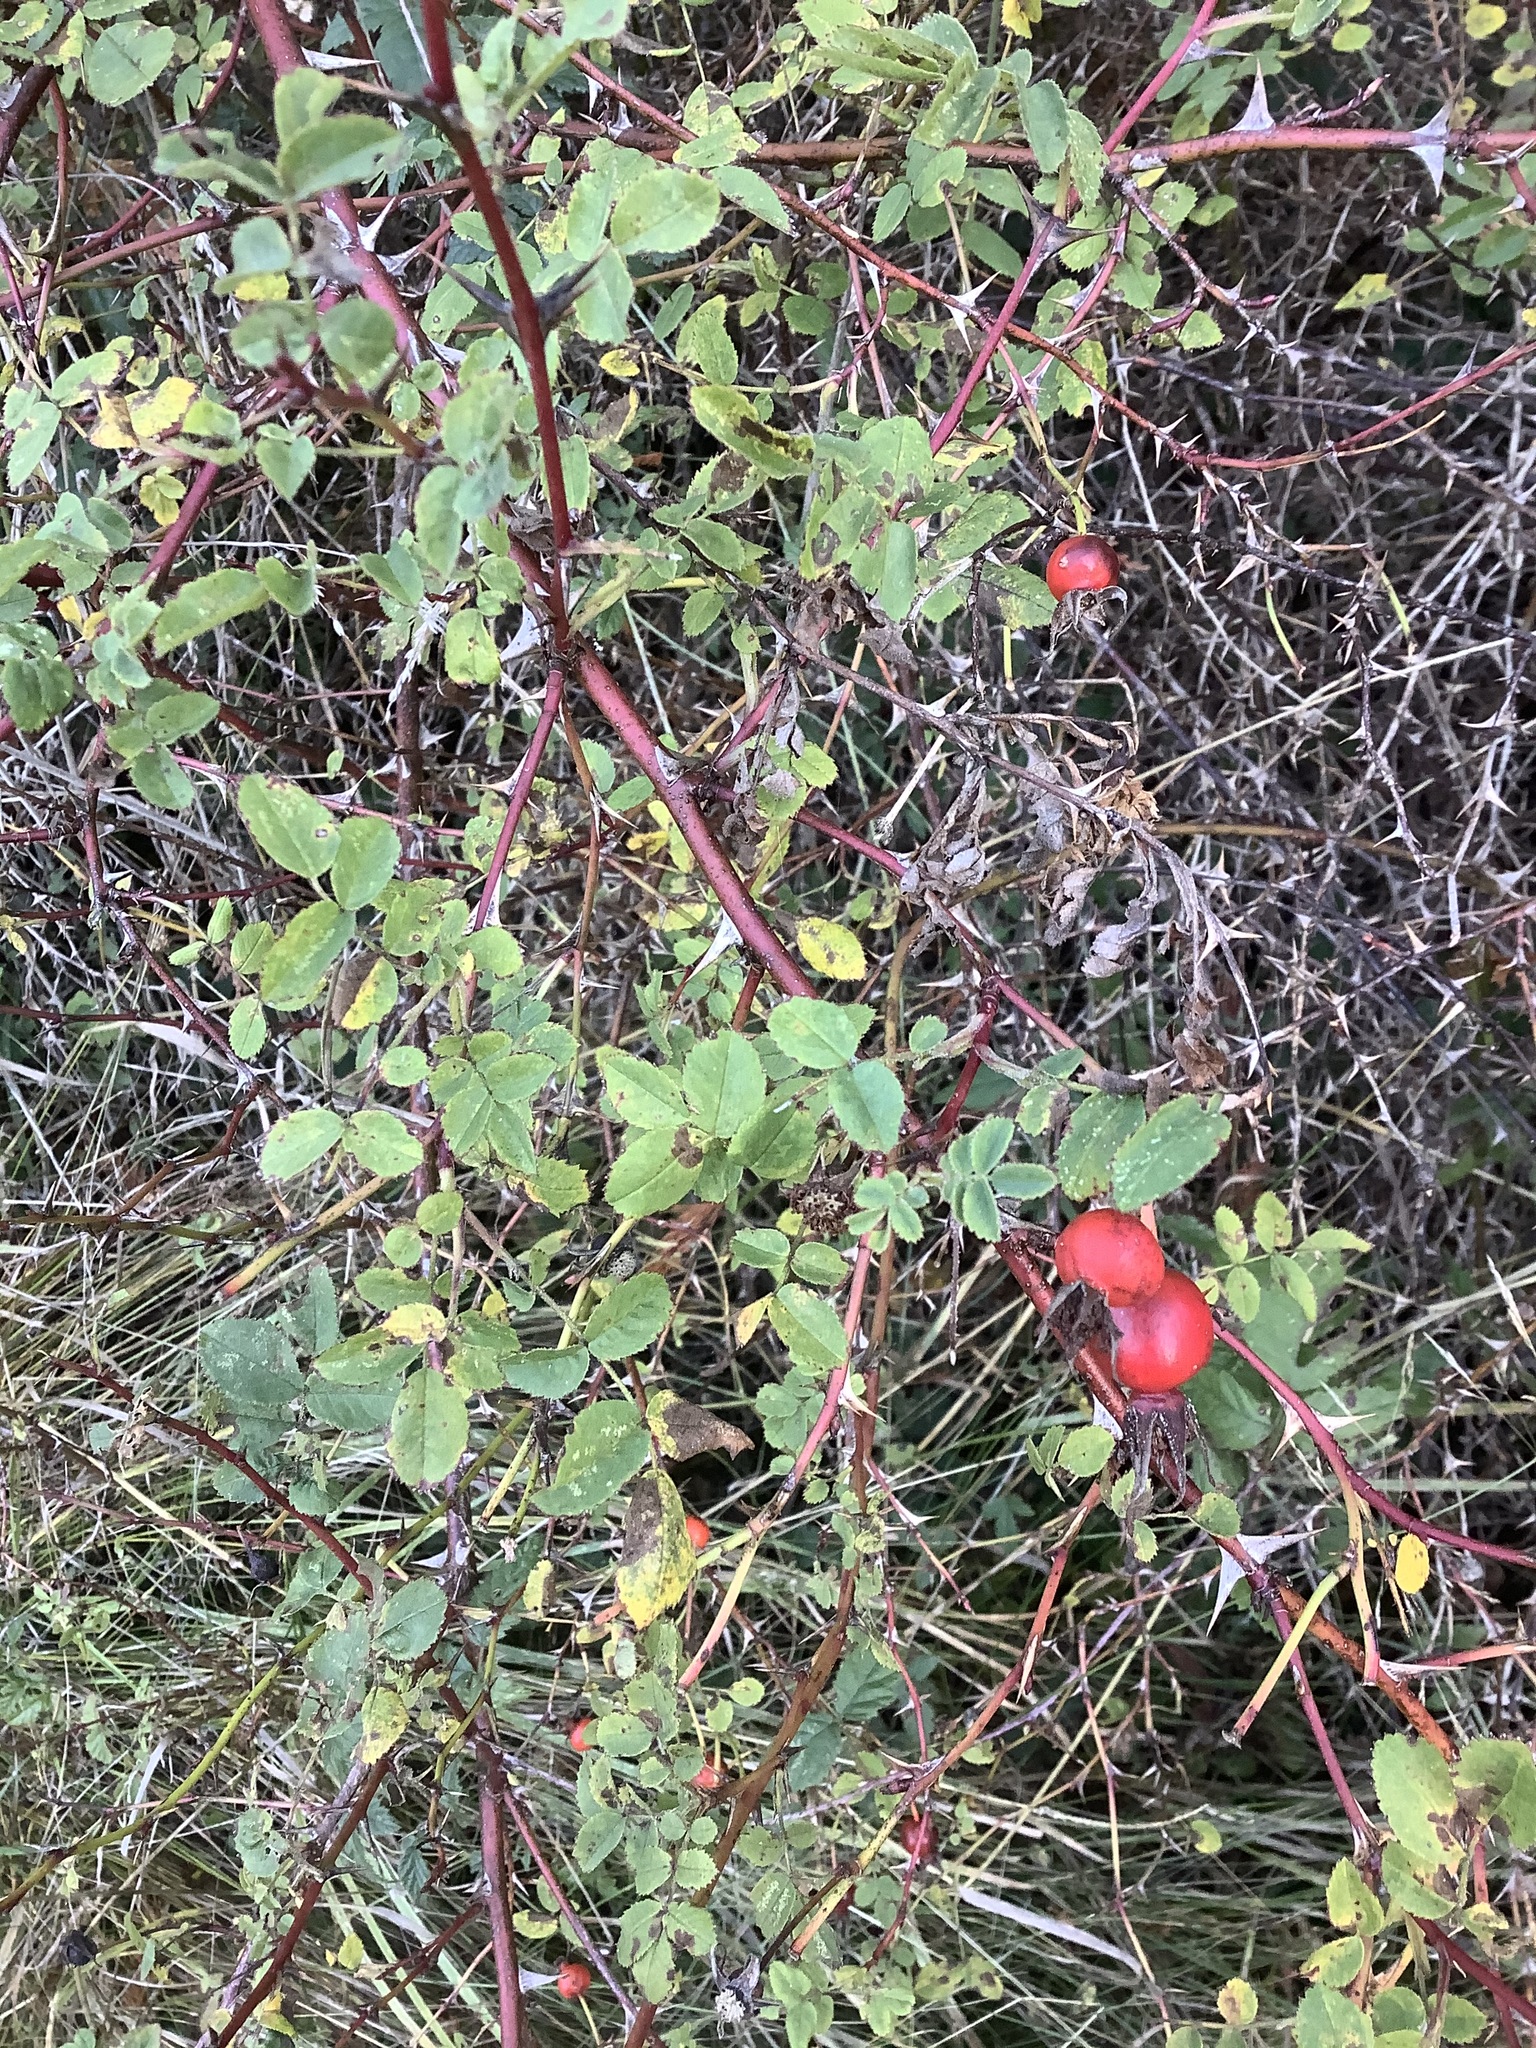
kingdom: Plantae
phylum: Tracheophyta
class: Magnoliopsida
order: Rosales
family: Rosaceae
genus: Rosa
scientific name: Rosa nutkana
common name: Nootka rose
